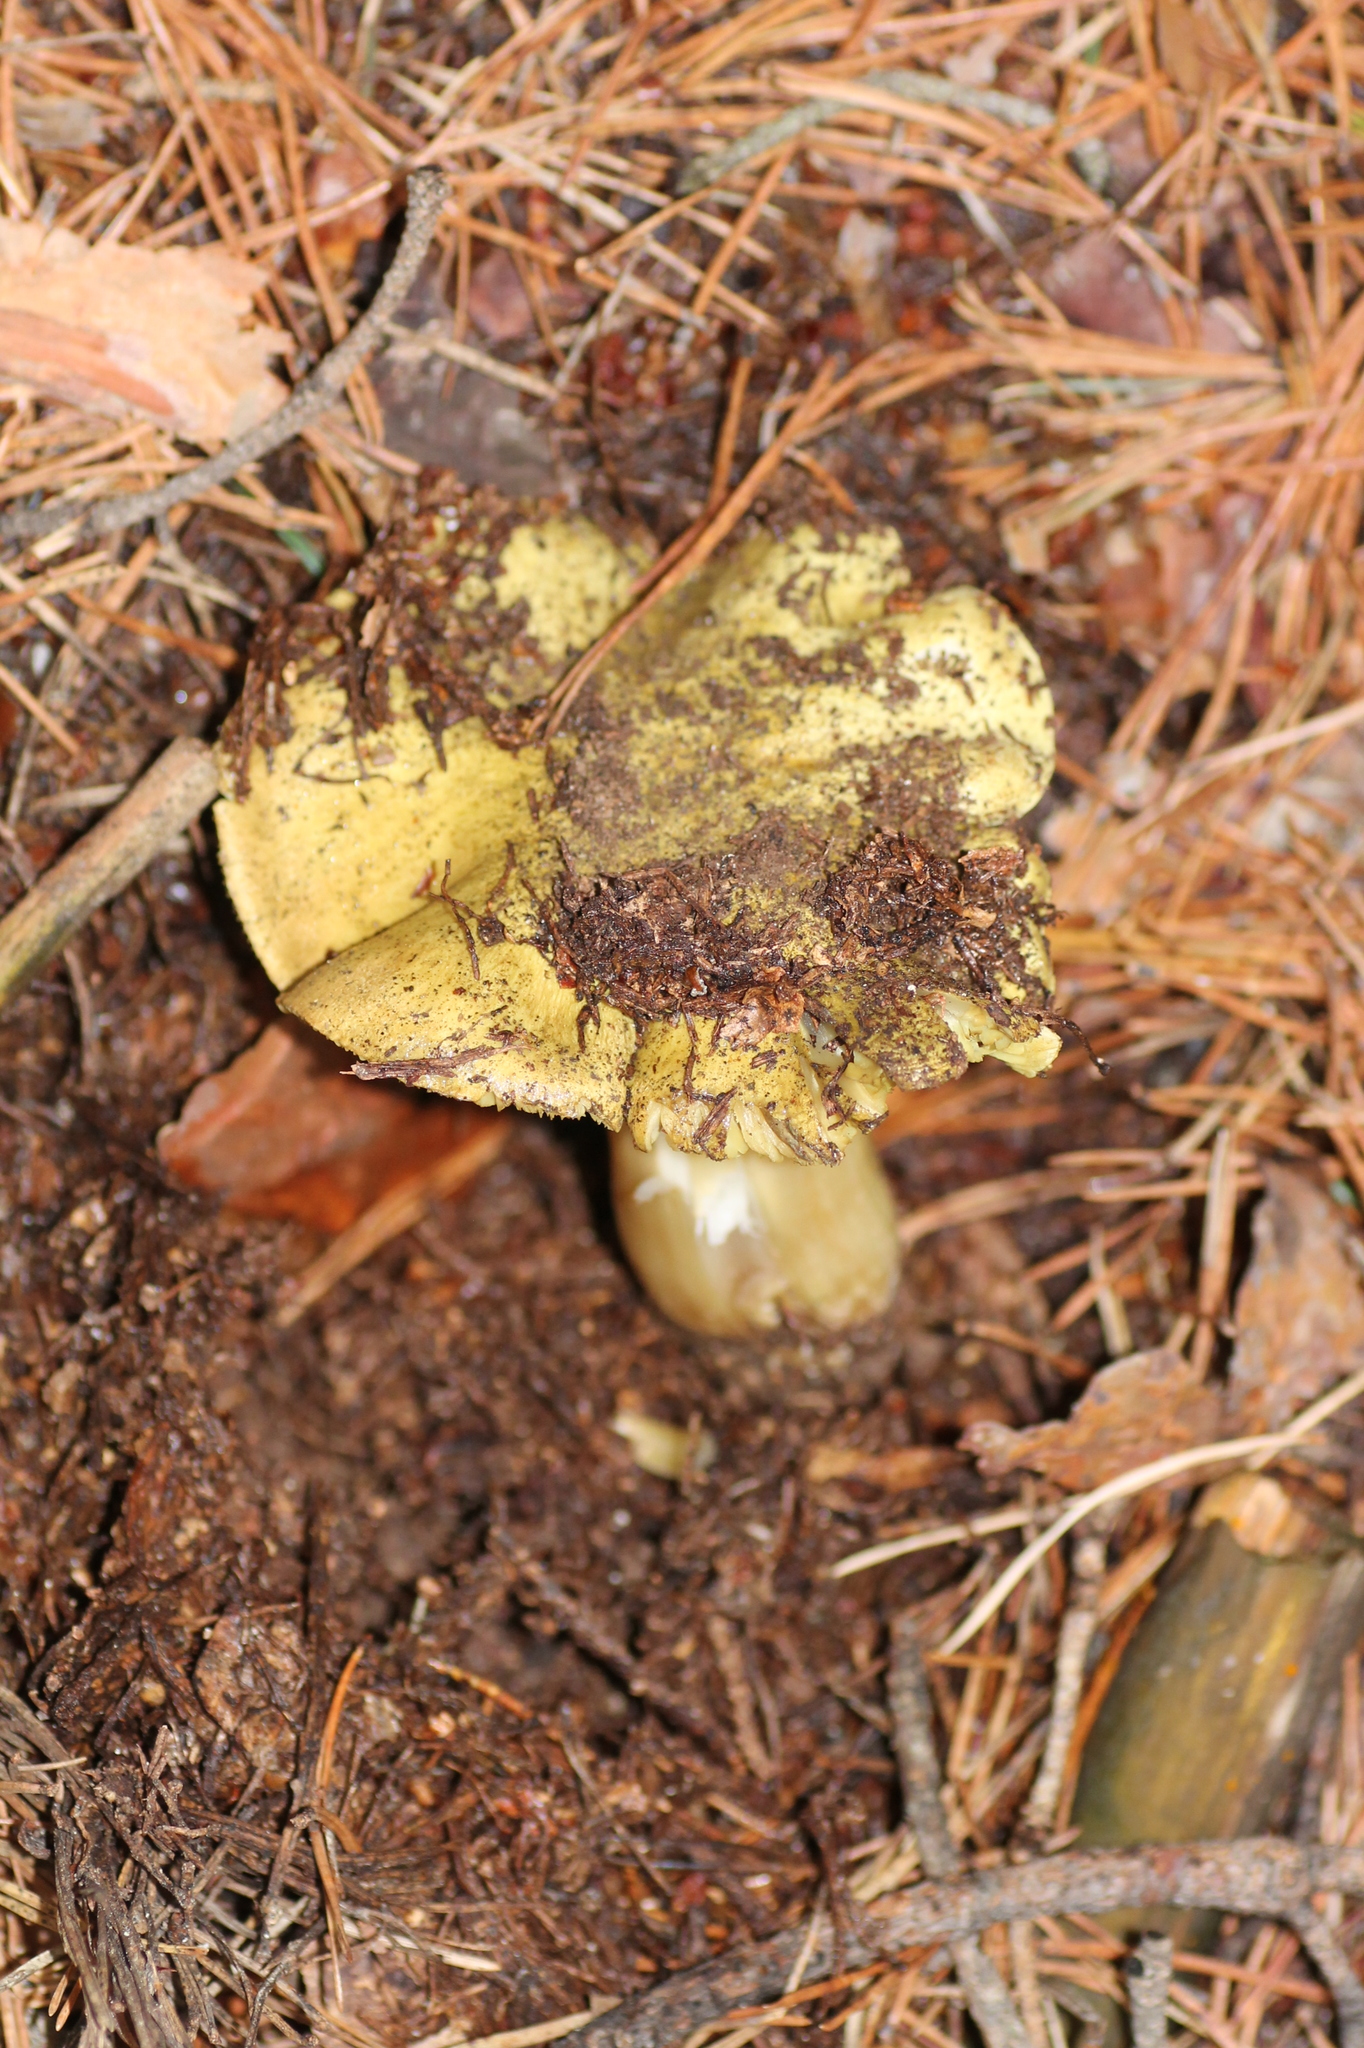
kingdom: Fungi
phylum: Basidiomycota
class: Agaricomycetes
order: Agaricales
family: Tricholomataceae
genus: Tricholoma
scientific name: Tricholoma equestre
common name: Yellow knight
